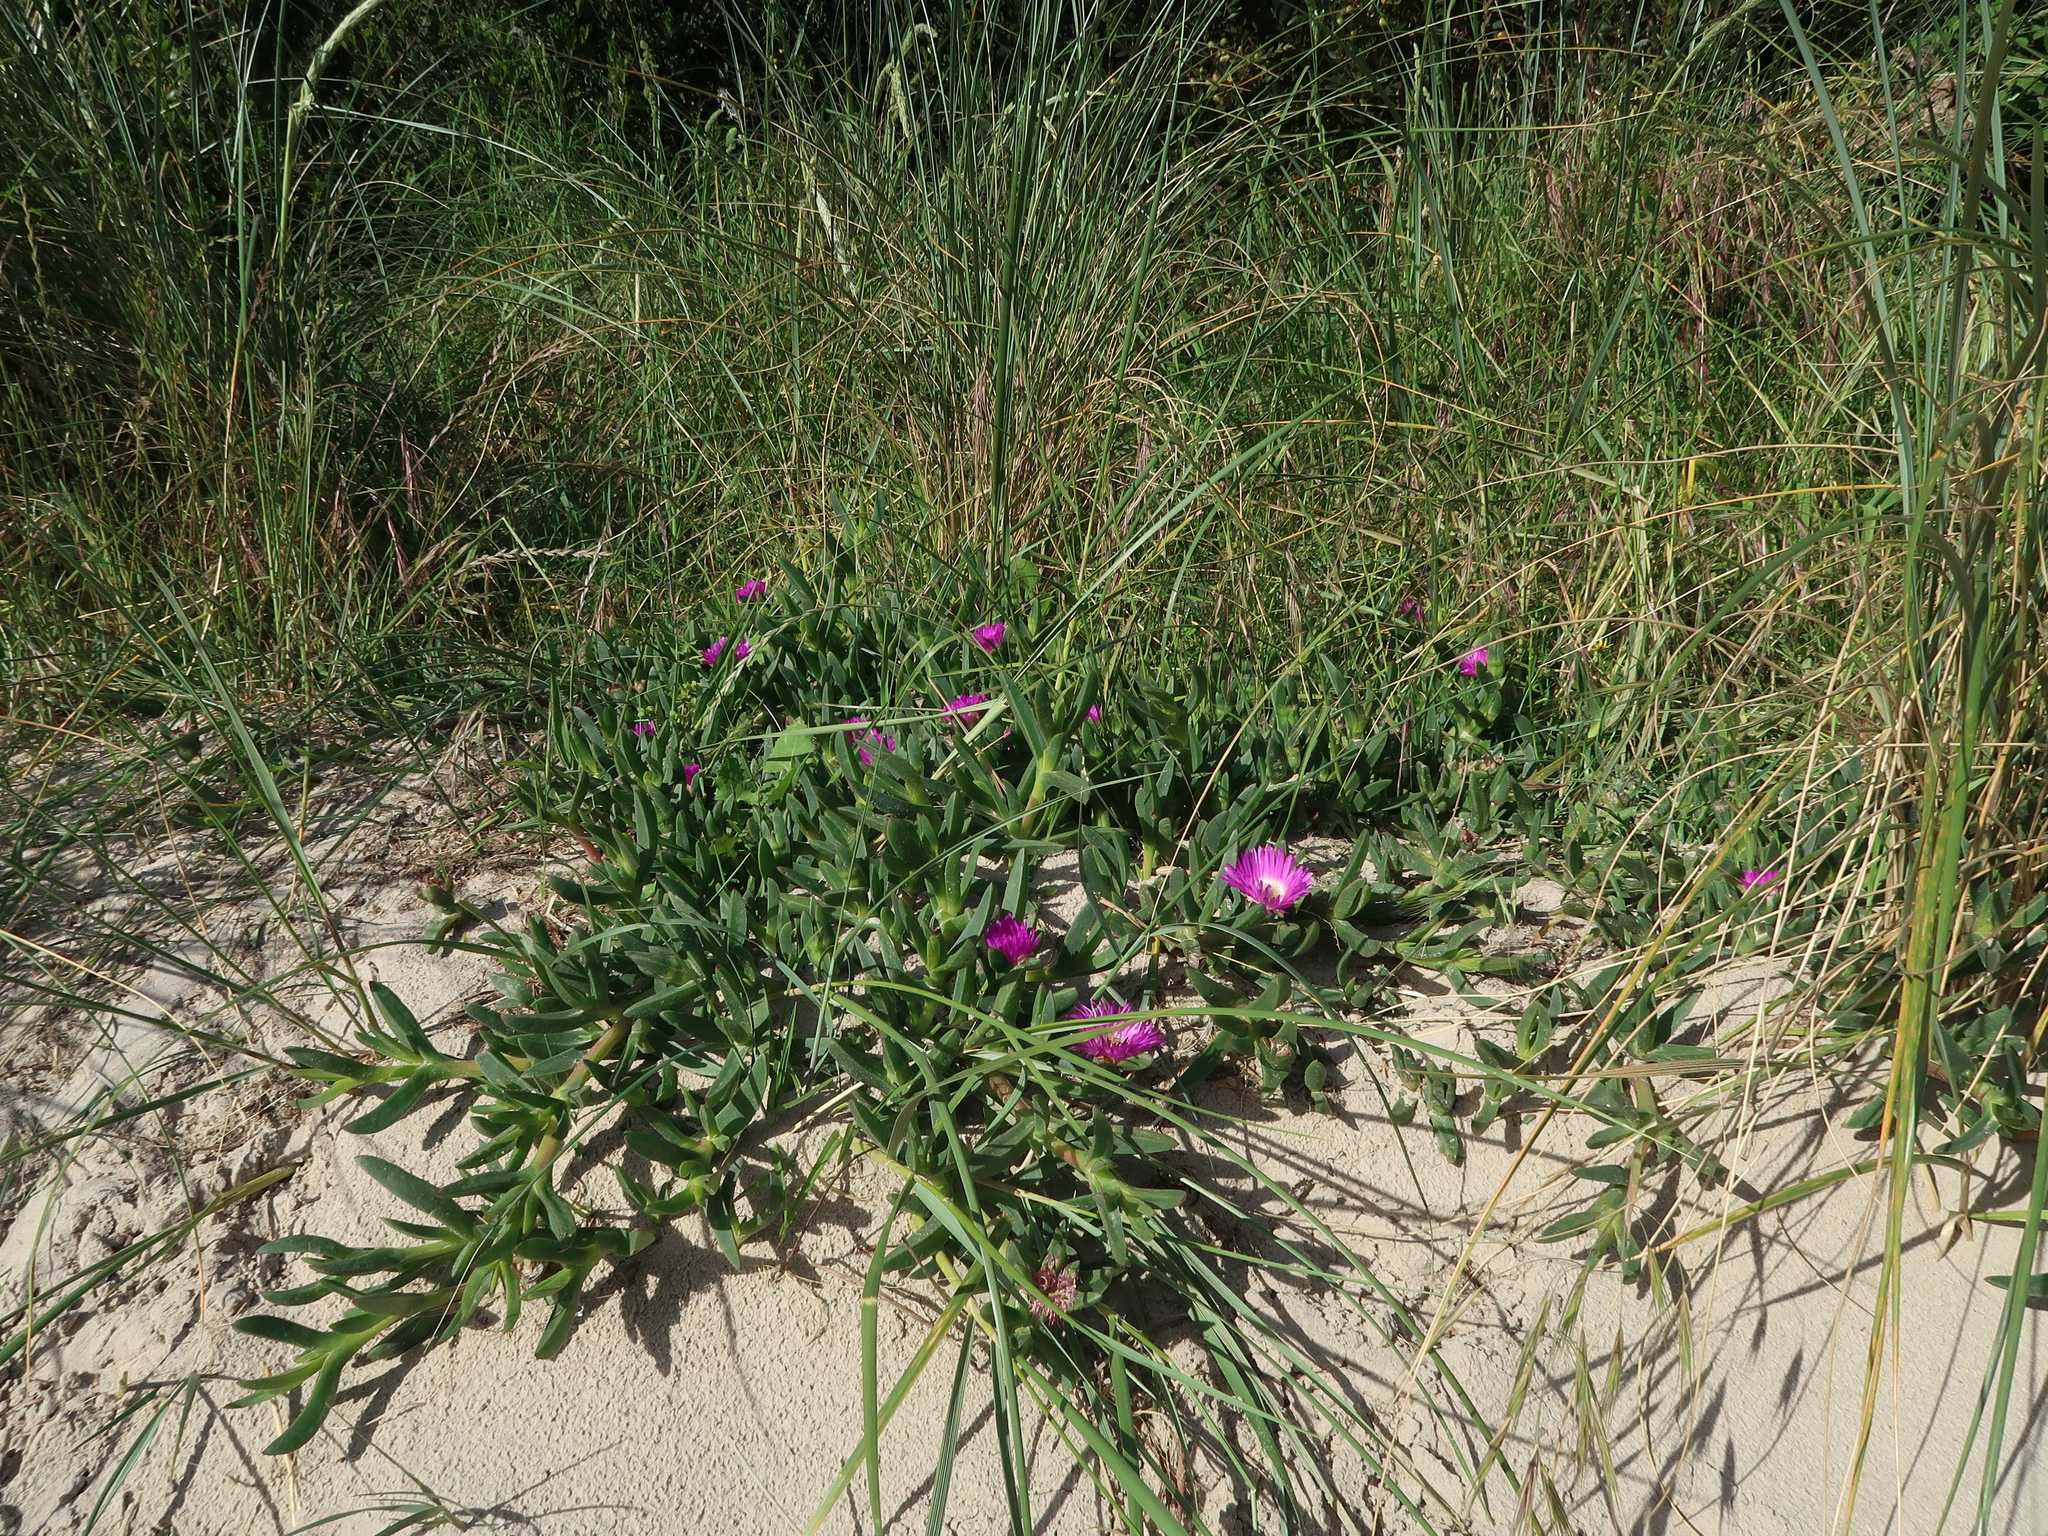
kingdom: Plantae
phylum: Tracheophyta
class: Magnoliopsida
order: Caryophyllales
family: Aizoaceae
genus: Carpobrotus
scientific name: Carpobrotus rossii
